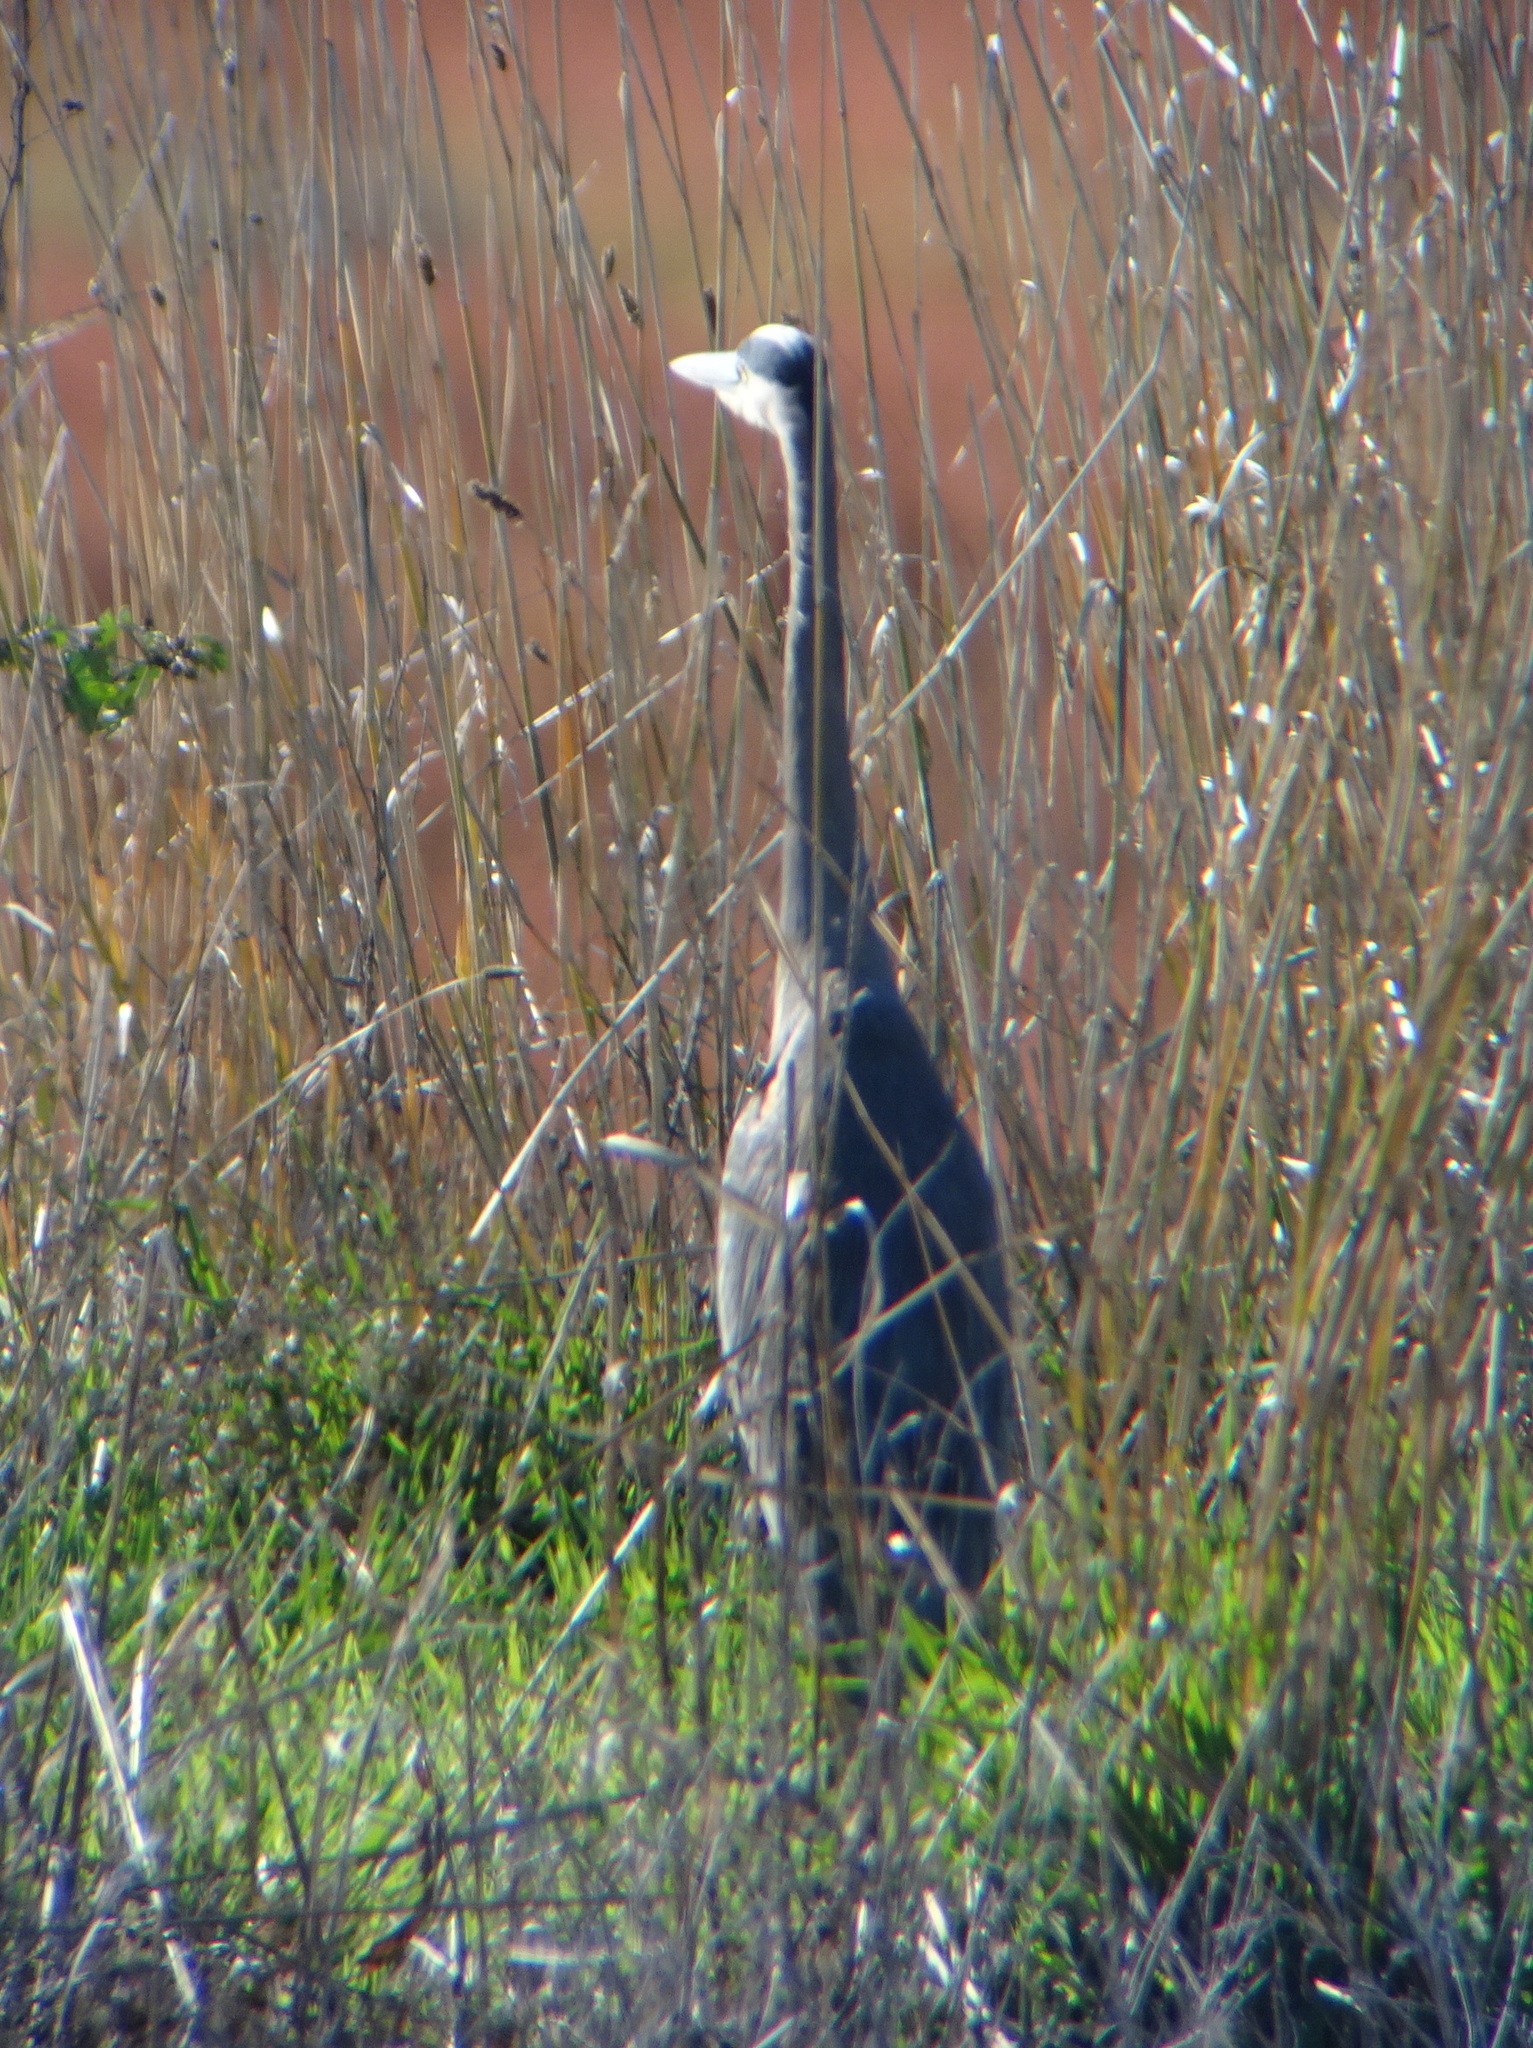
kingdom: Animalia
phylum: Chordata
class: Aves
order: Pelecaniformes
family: Ardeidae
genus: Ardea
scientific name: Ardea herodias
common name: Great blue heron
